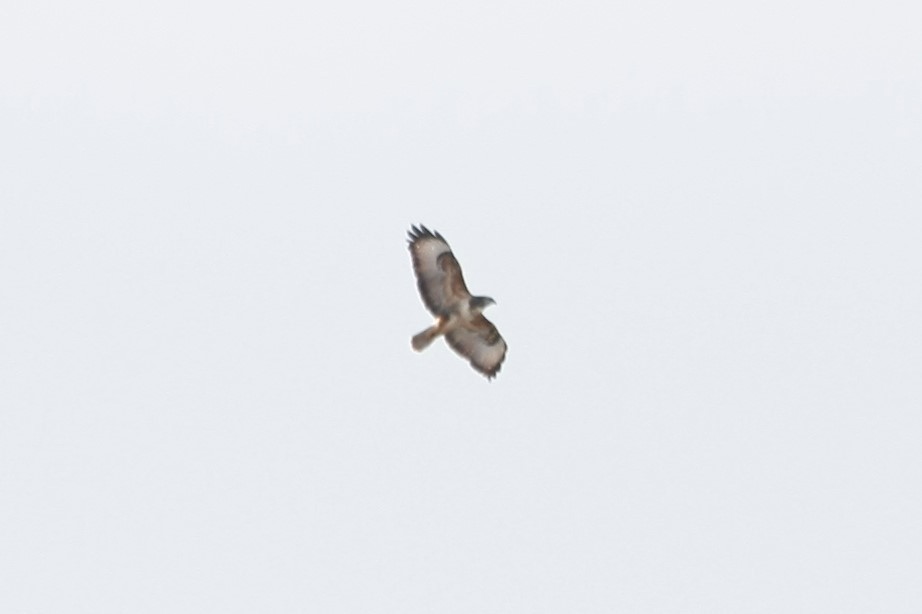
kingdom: Animalia
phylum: Chordata
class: Aves
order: Accipitriformes
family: Accipitridae
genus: Buteo
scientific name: Buteo buteo
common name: Common buzzard
